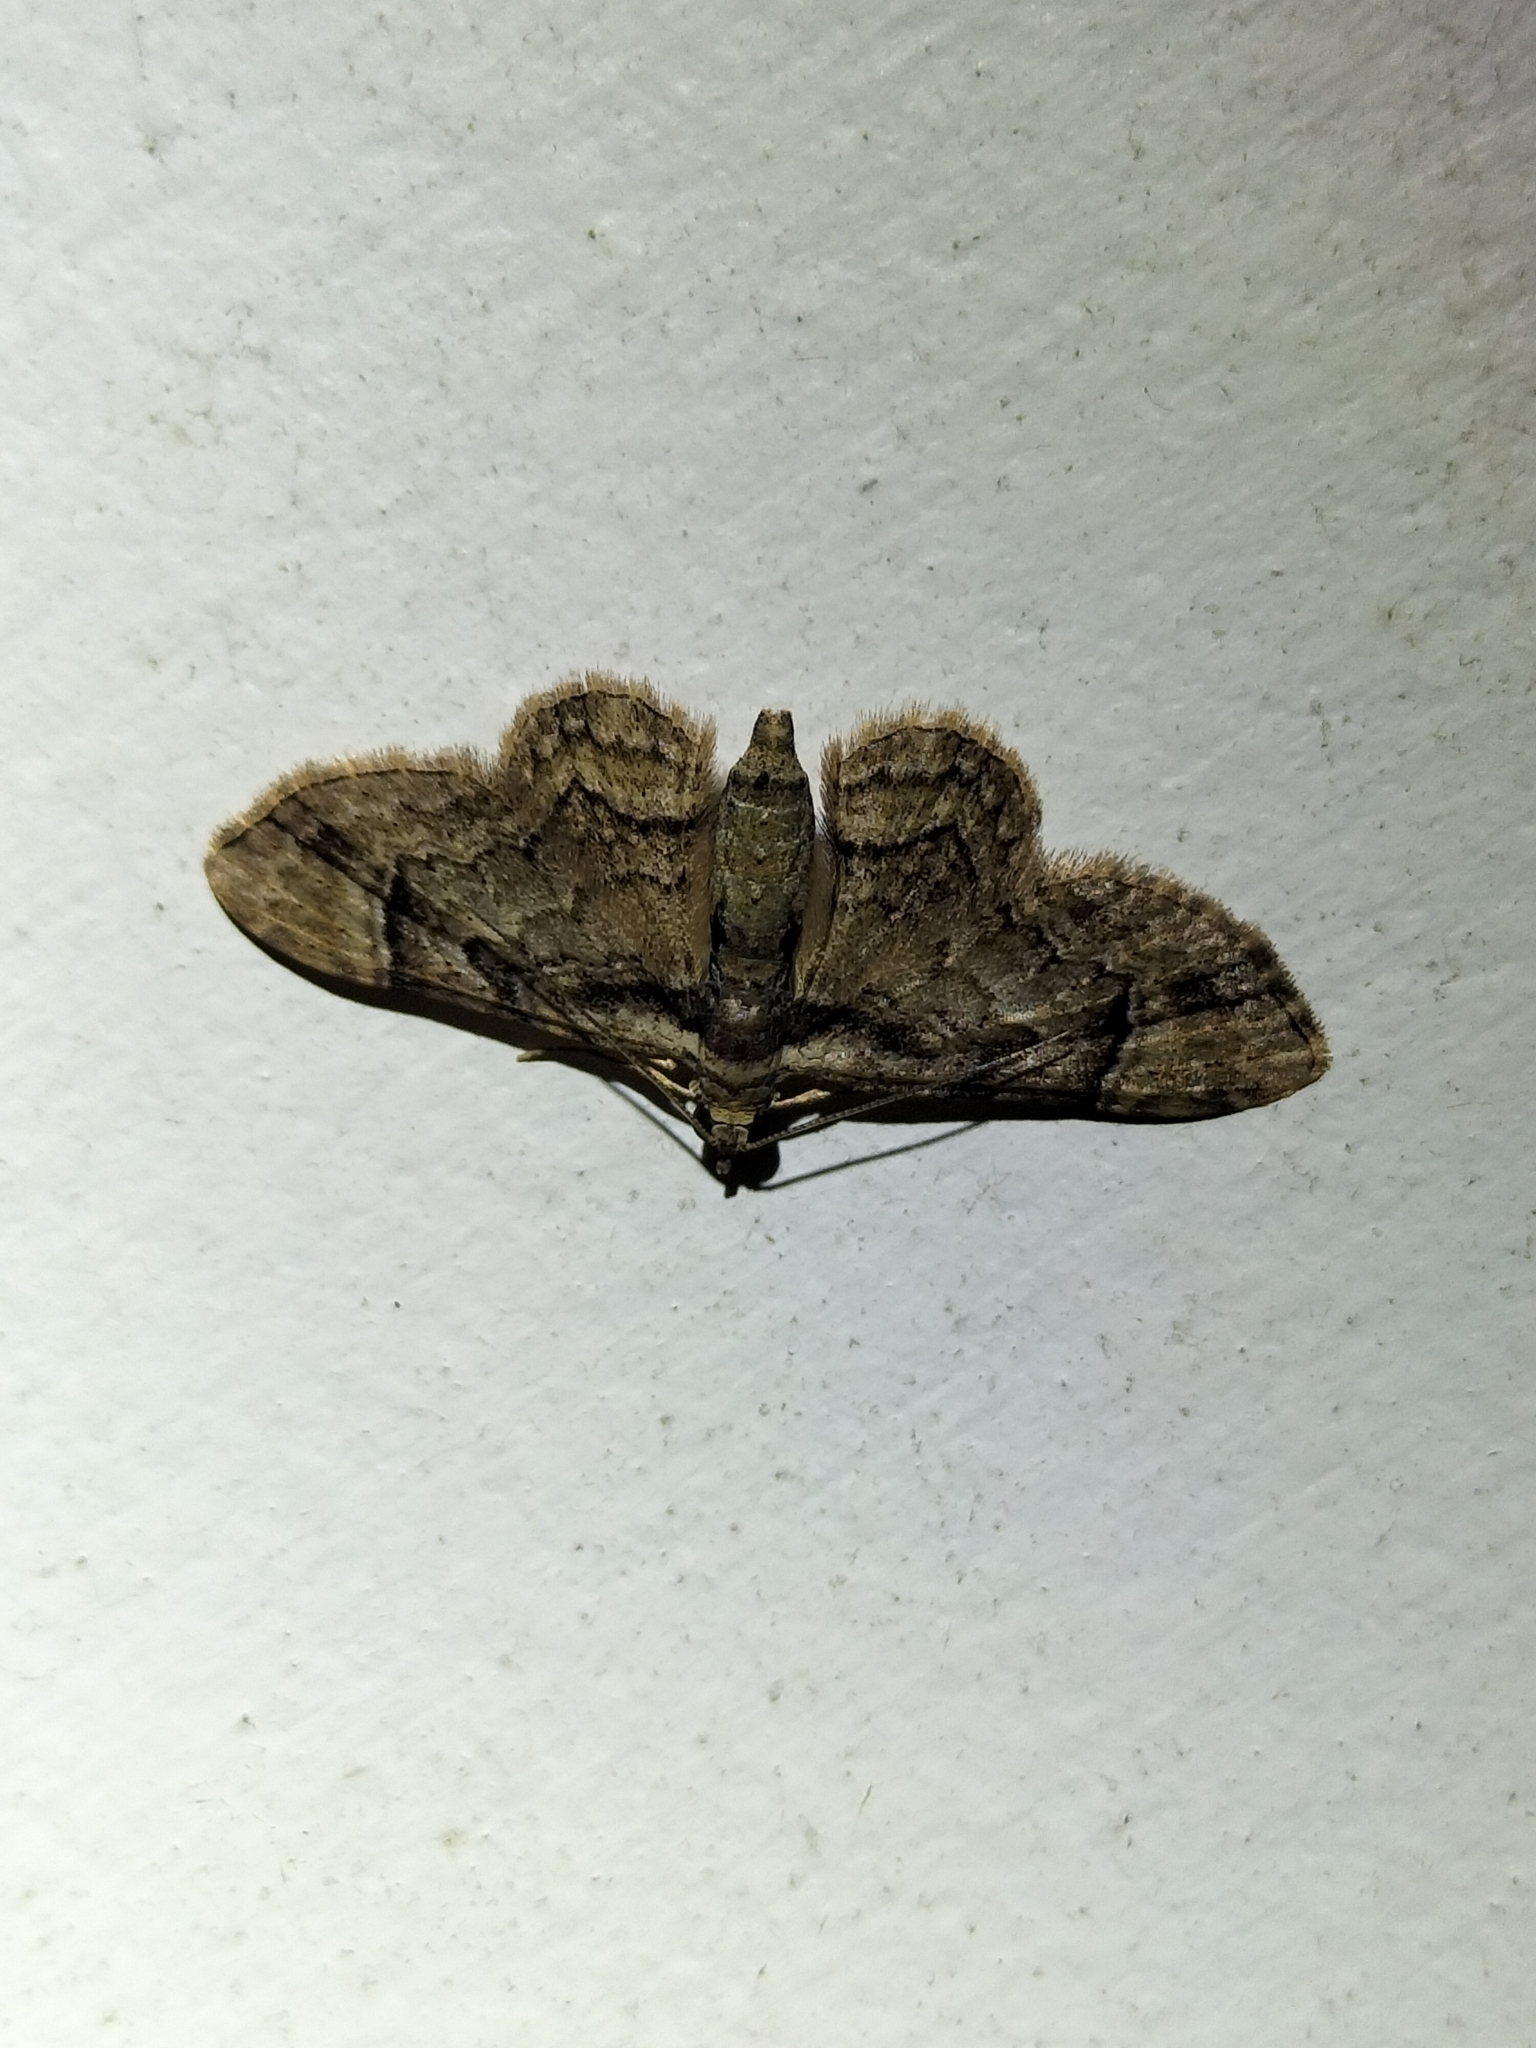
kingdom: Animalia
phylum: Arthropoda
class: Insecta
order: Lepidoptera
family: Geometridae
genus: Gymnoscelis
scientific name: Gymnoscelis ischnophylla
